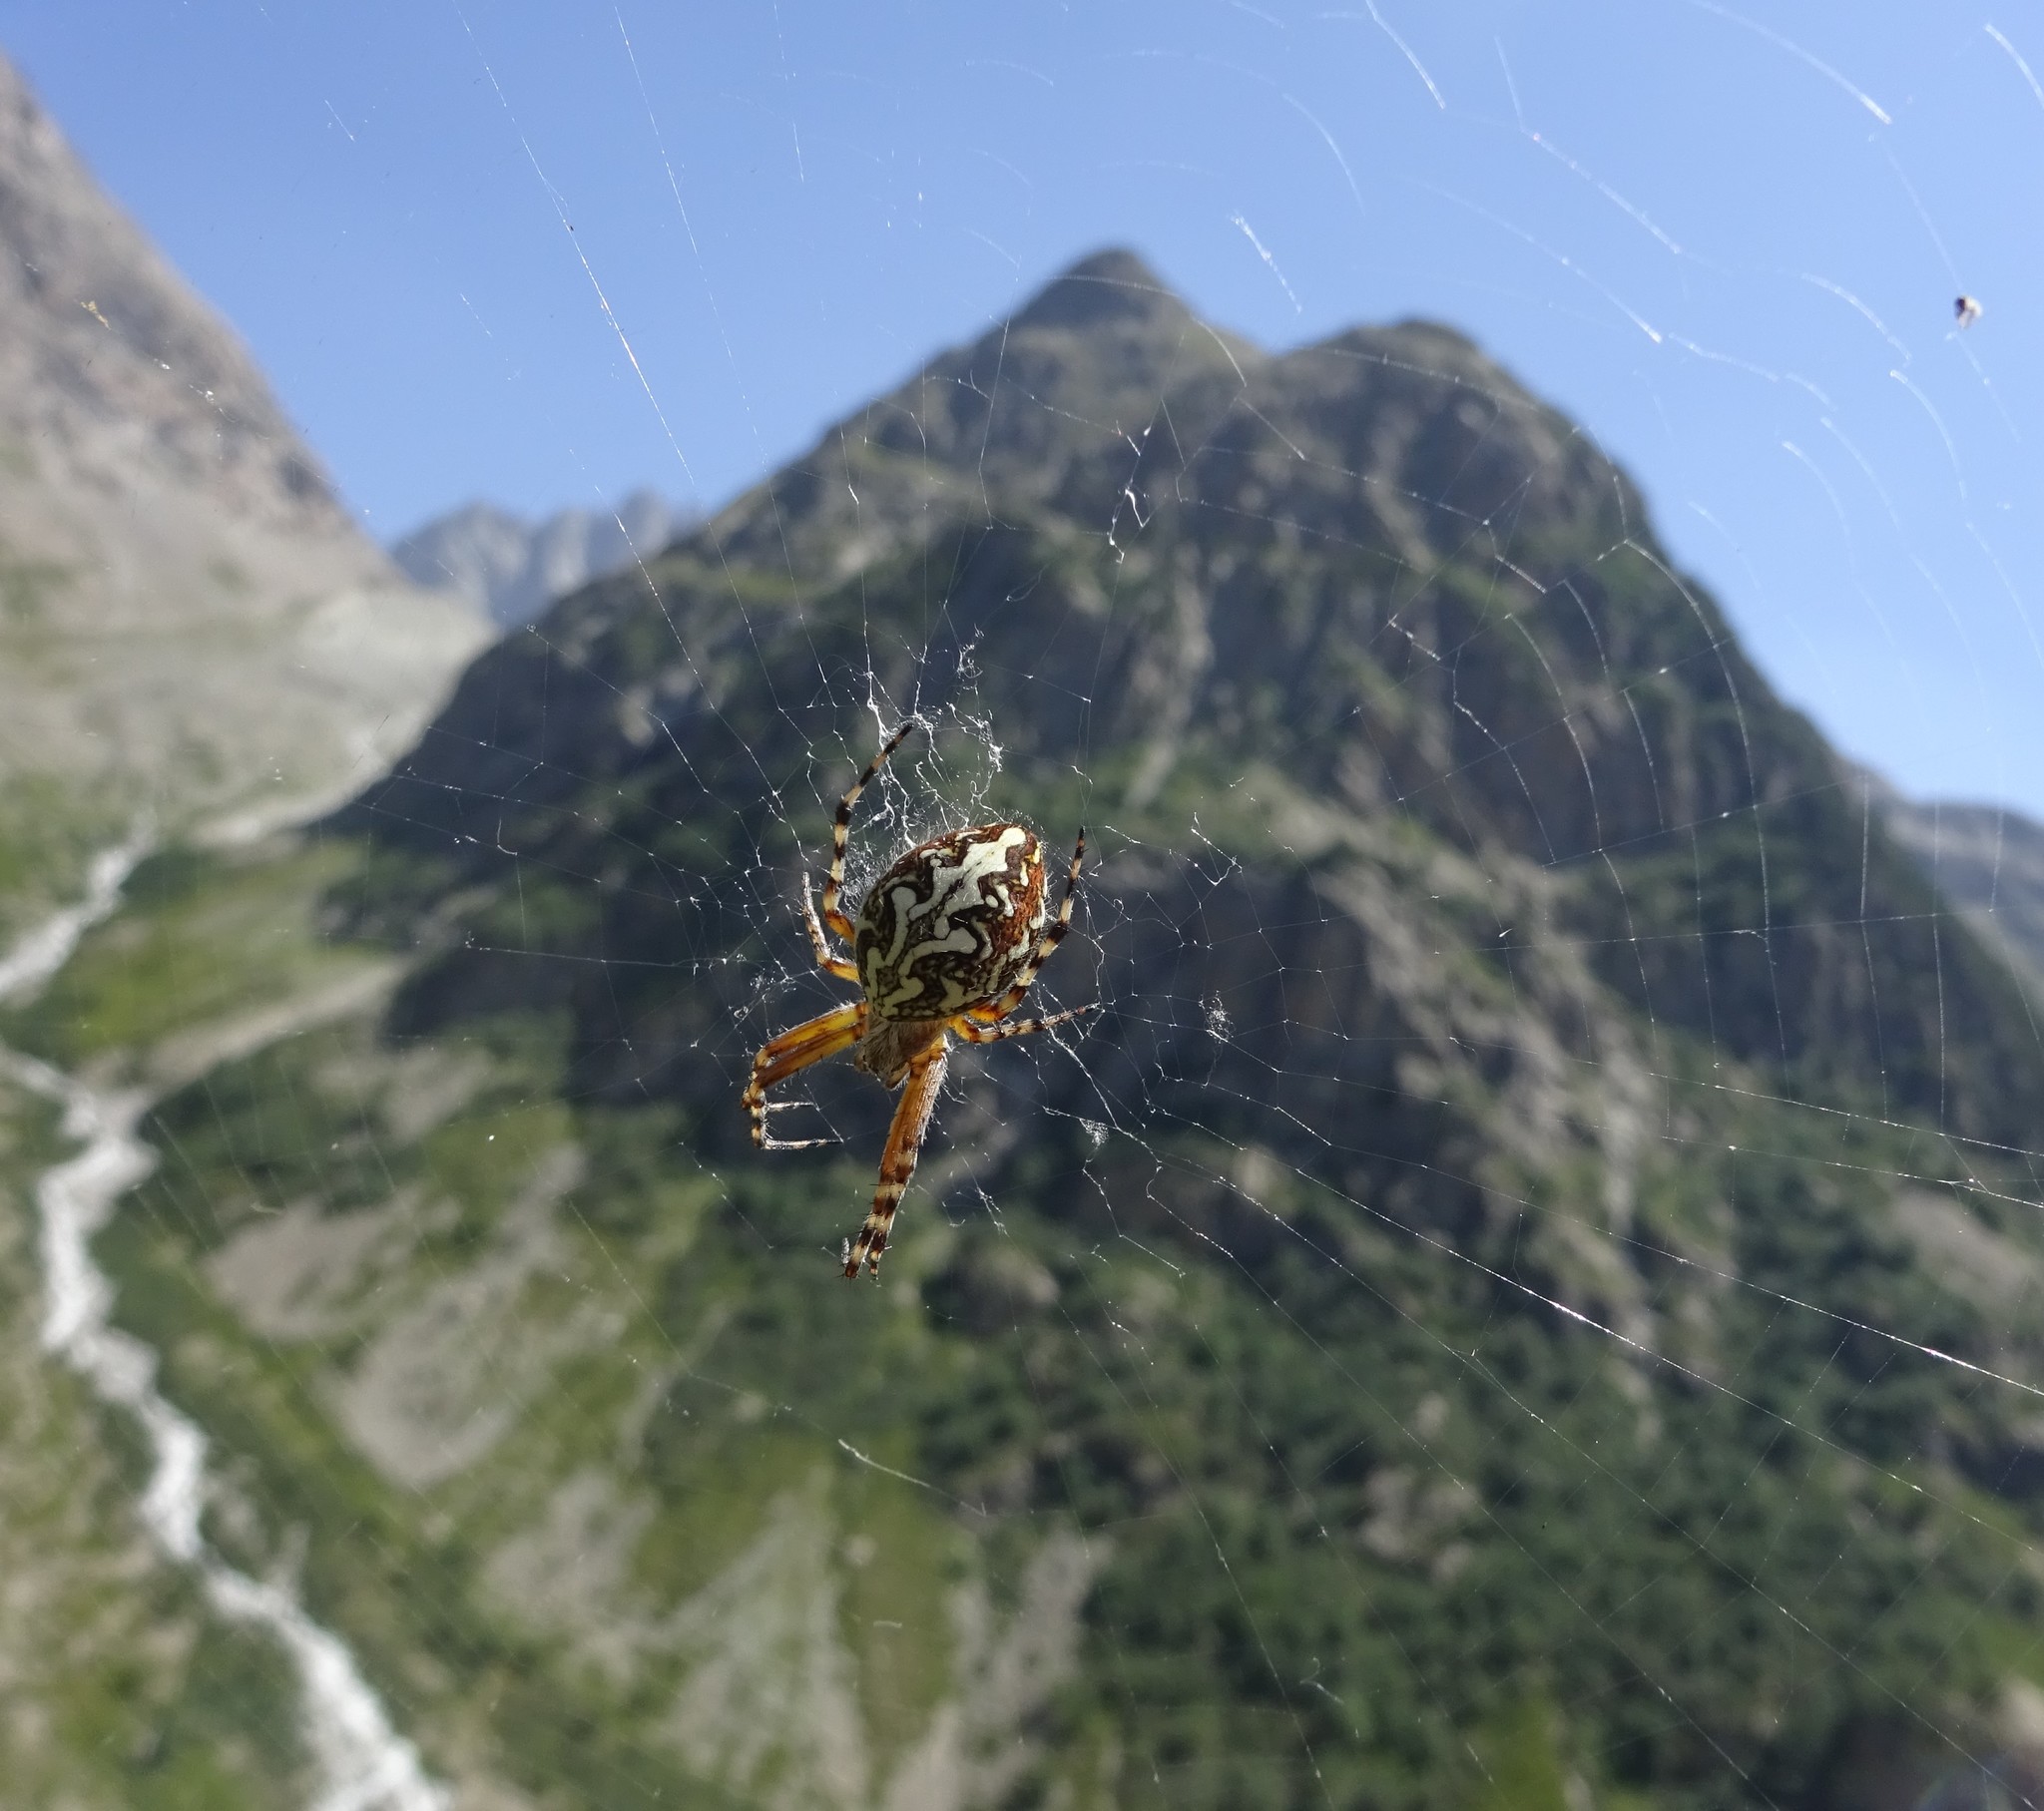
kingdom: Animalia
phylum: Arthropoda
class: Arachnida
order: Araneae
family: Araneidae
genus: Aculepeira
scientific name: Aculepeira ceropegia
